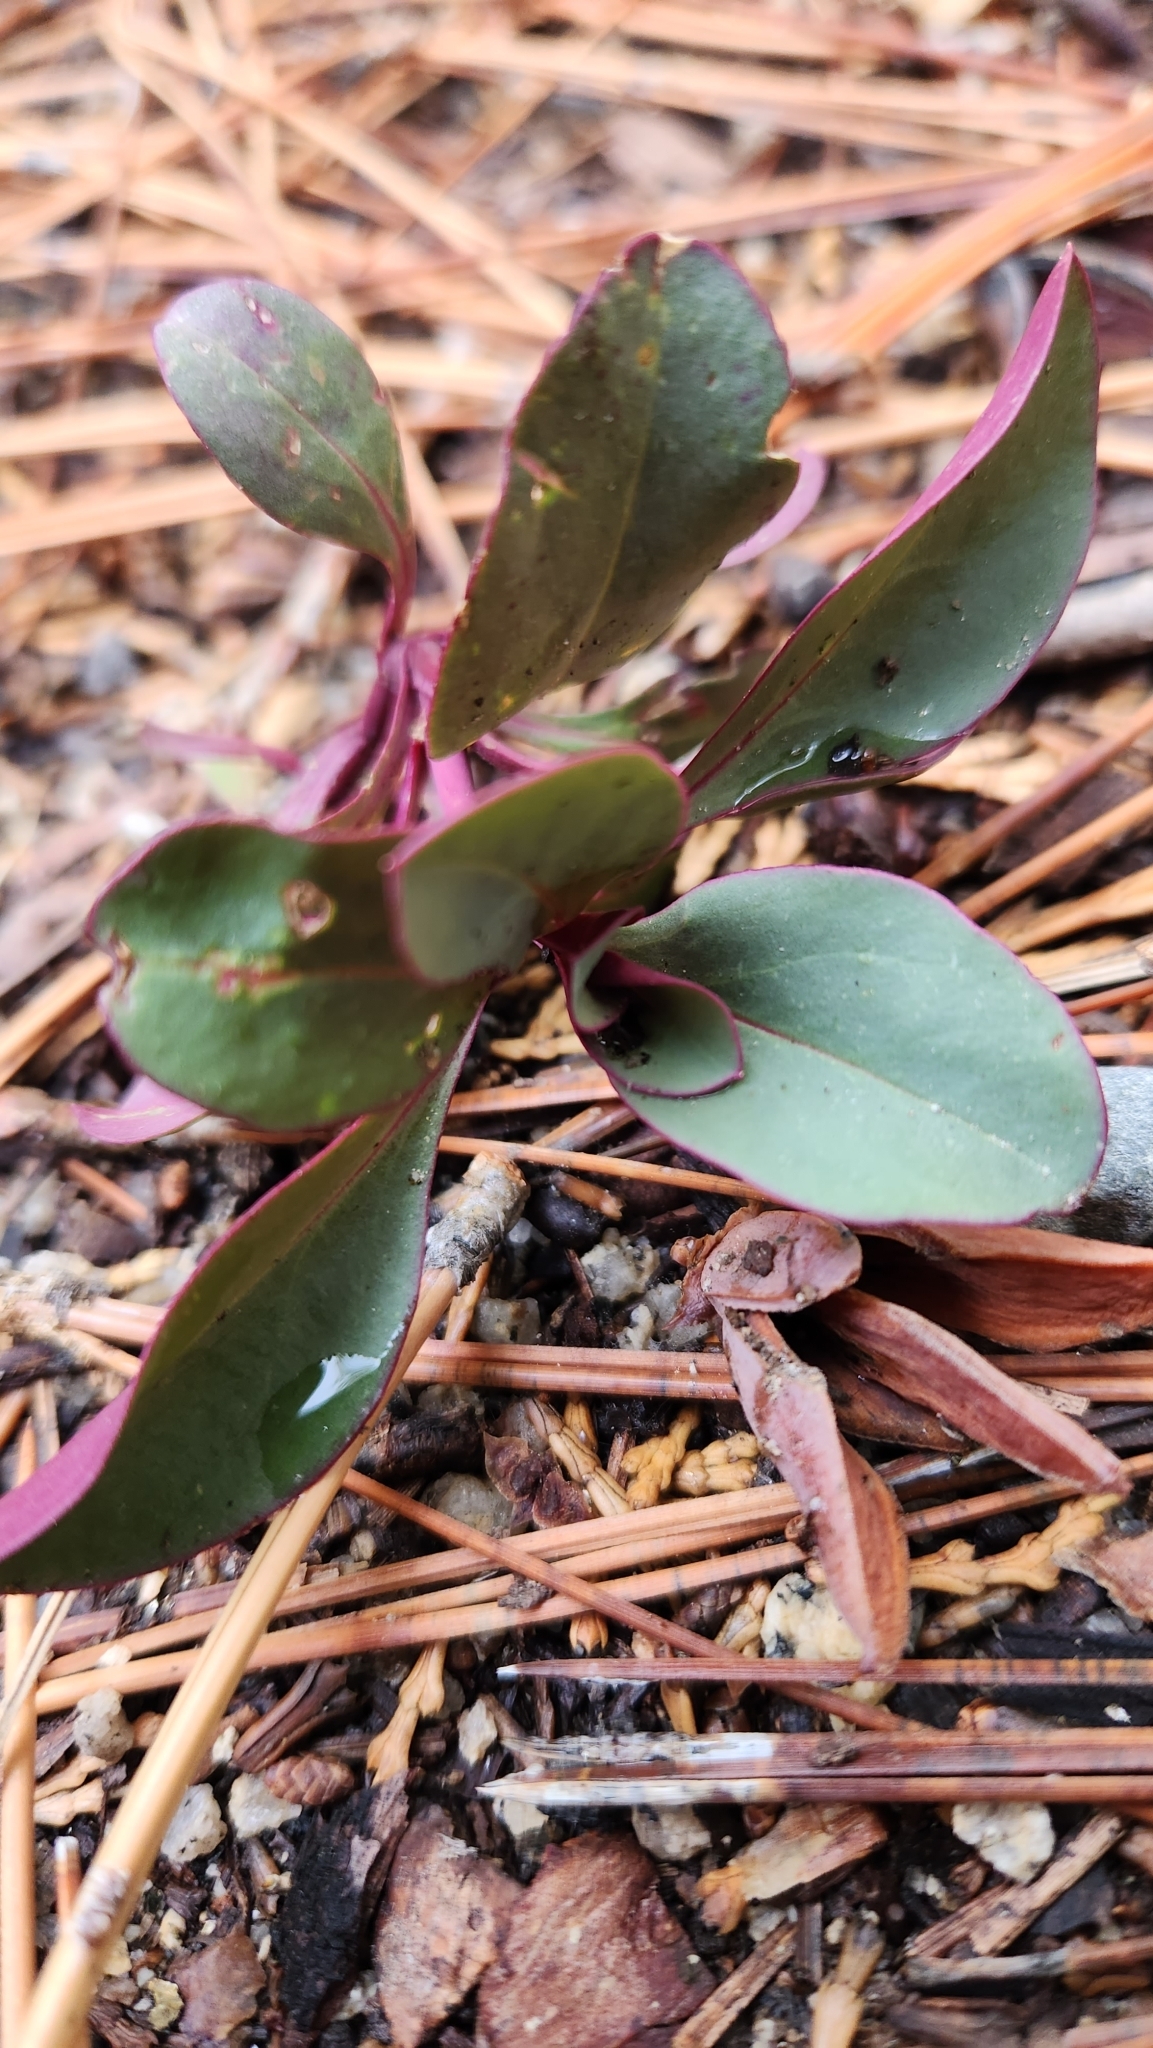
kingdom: Plantae
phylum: Tracheophyta
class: Magnoliopsida
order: Lamiales
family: Plantaginaceae
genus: Penstemon
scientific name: Penstemon rostriflorus
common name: Bridges's penstemon
